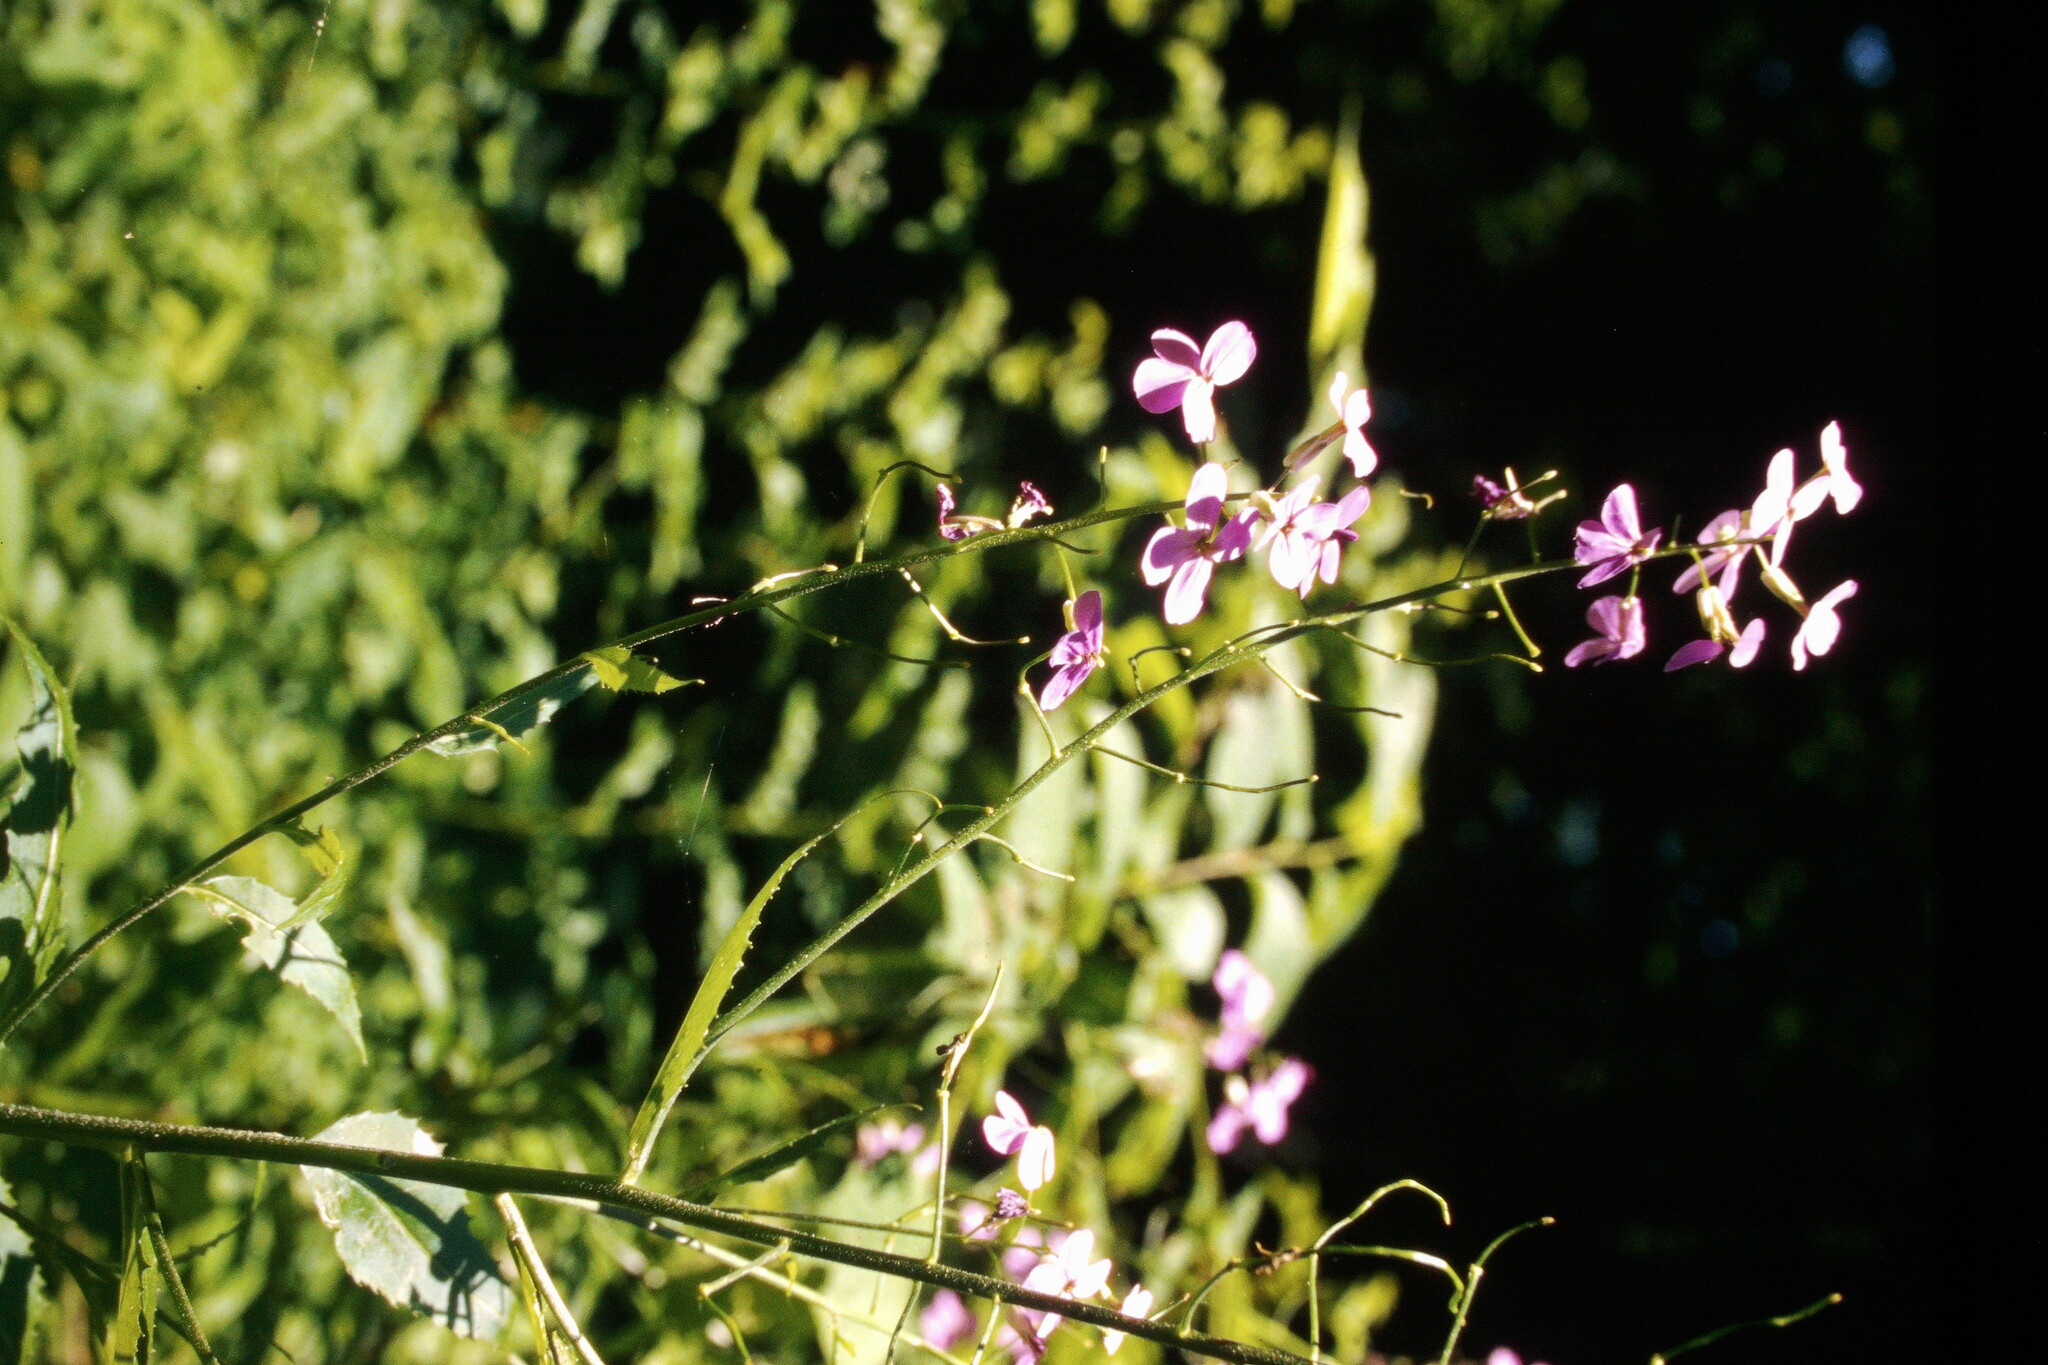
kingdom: Plantae
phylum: Tracheophyta
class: Magnoliopsida
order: Brassicales
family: Brassicaceae
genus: Hesperis
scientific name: Hesperis matronalis
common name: Dame's-violet
